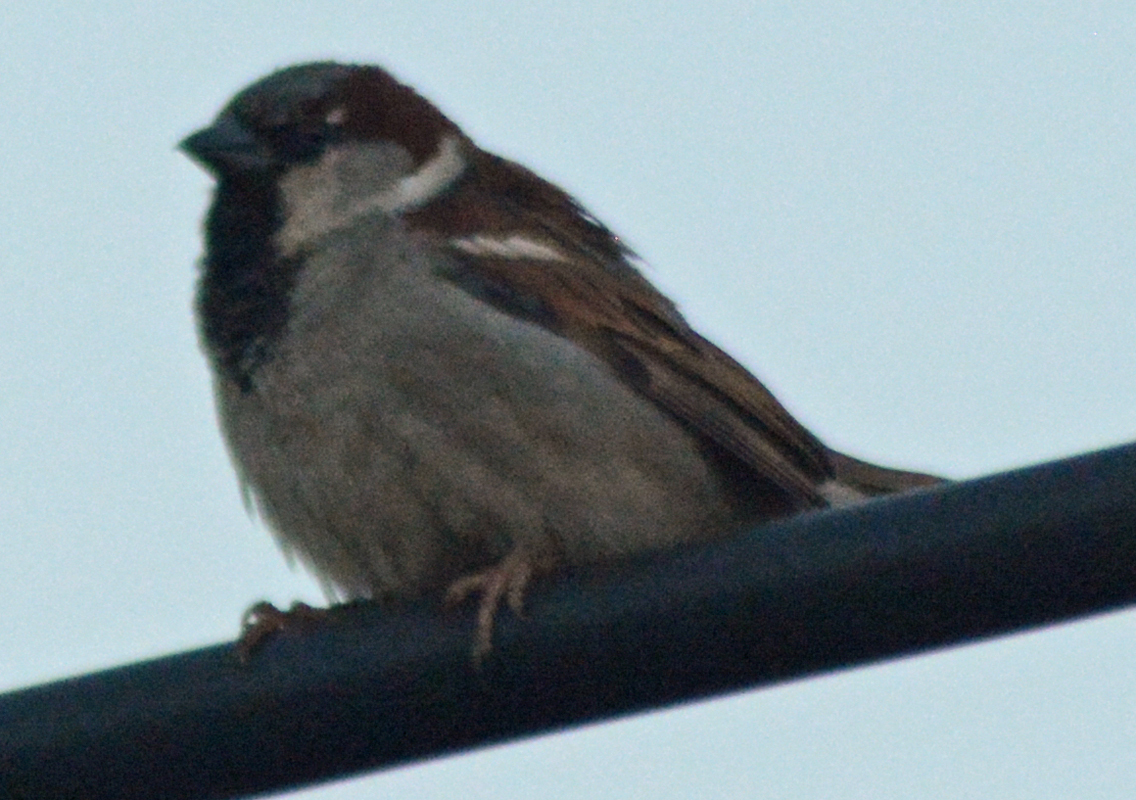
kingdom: Animalia
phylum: Chordata
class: Aves
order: Passeriformes
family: Passeridae
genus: Passer
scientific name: Passer domesticus
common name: House sparrow
